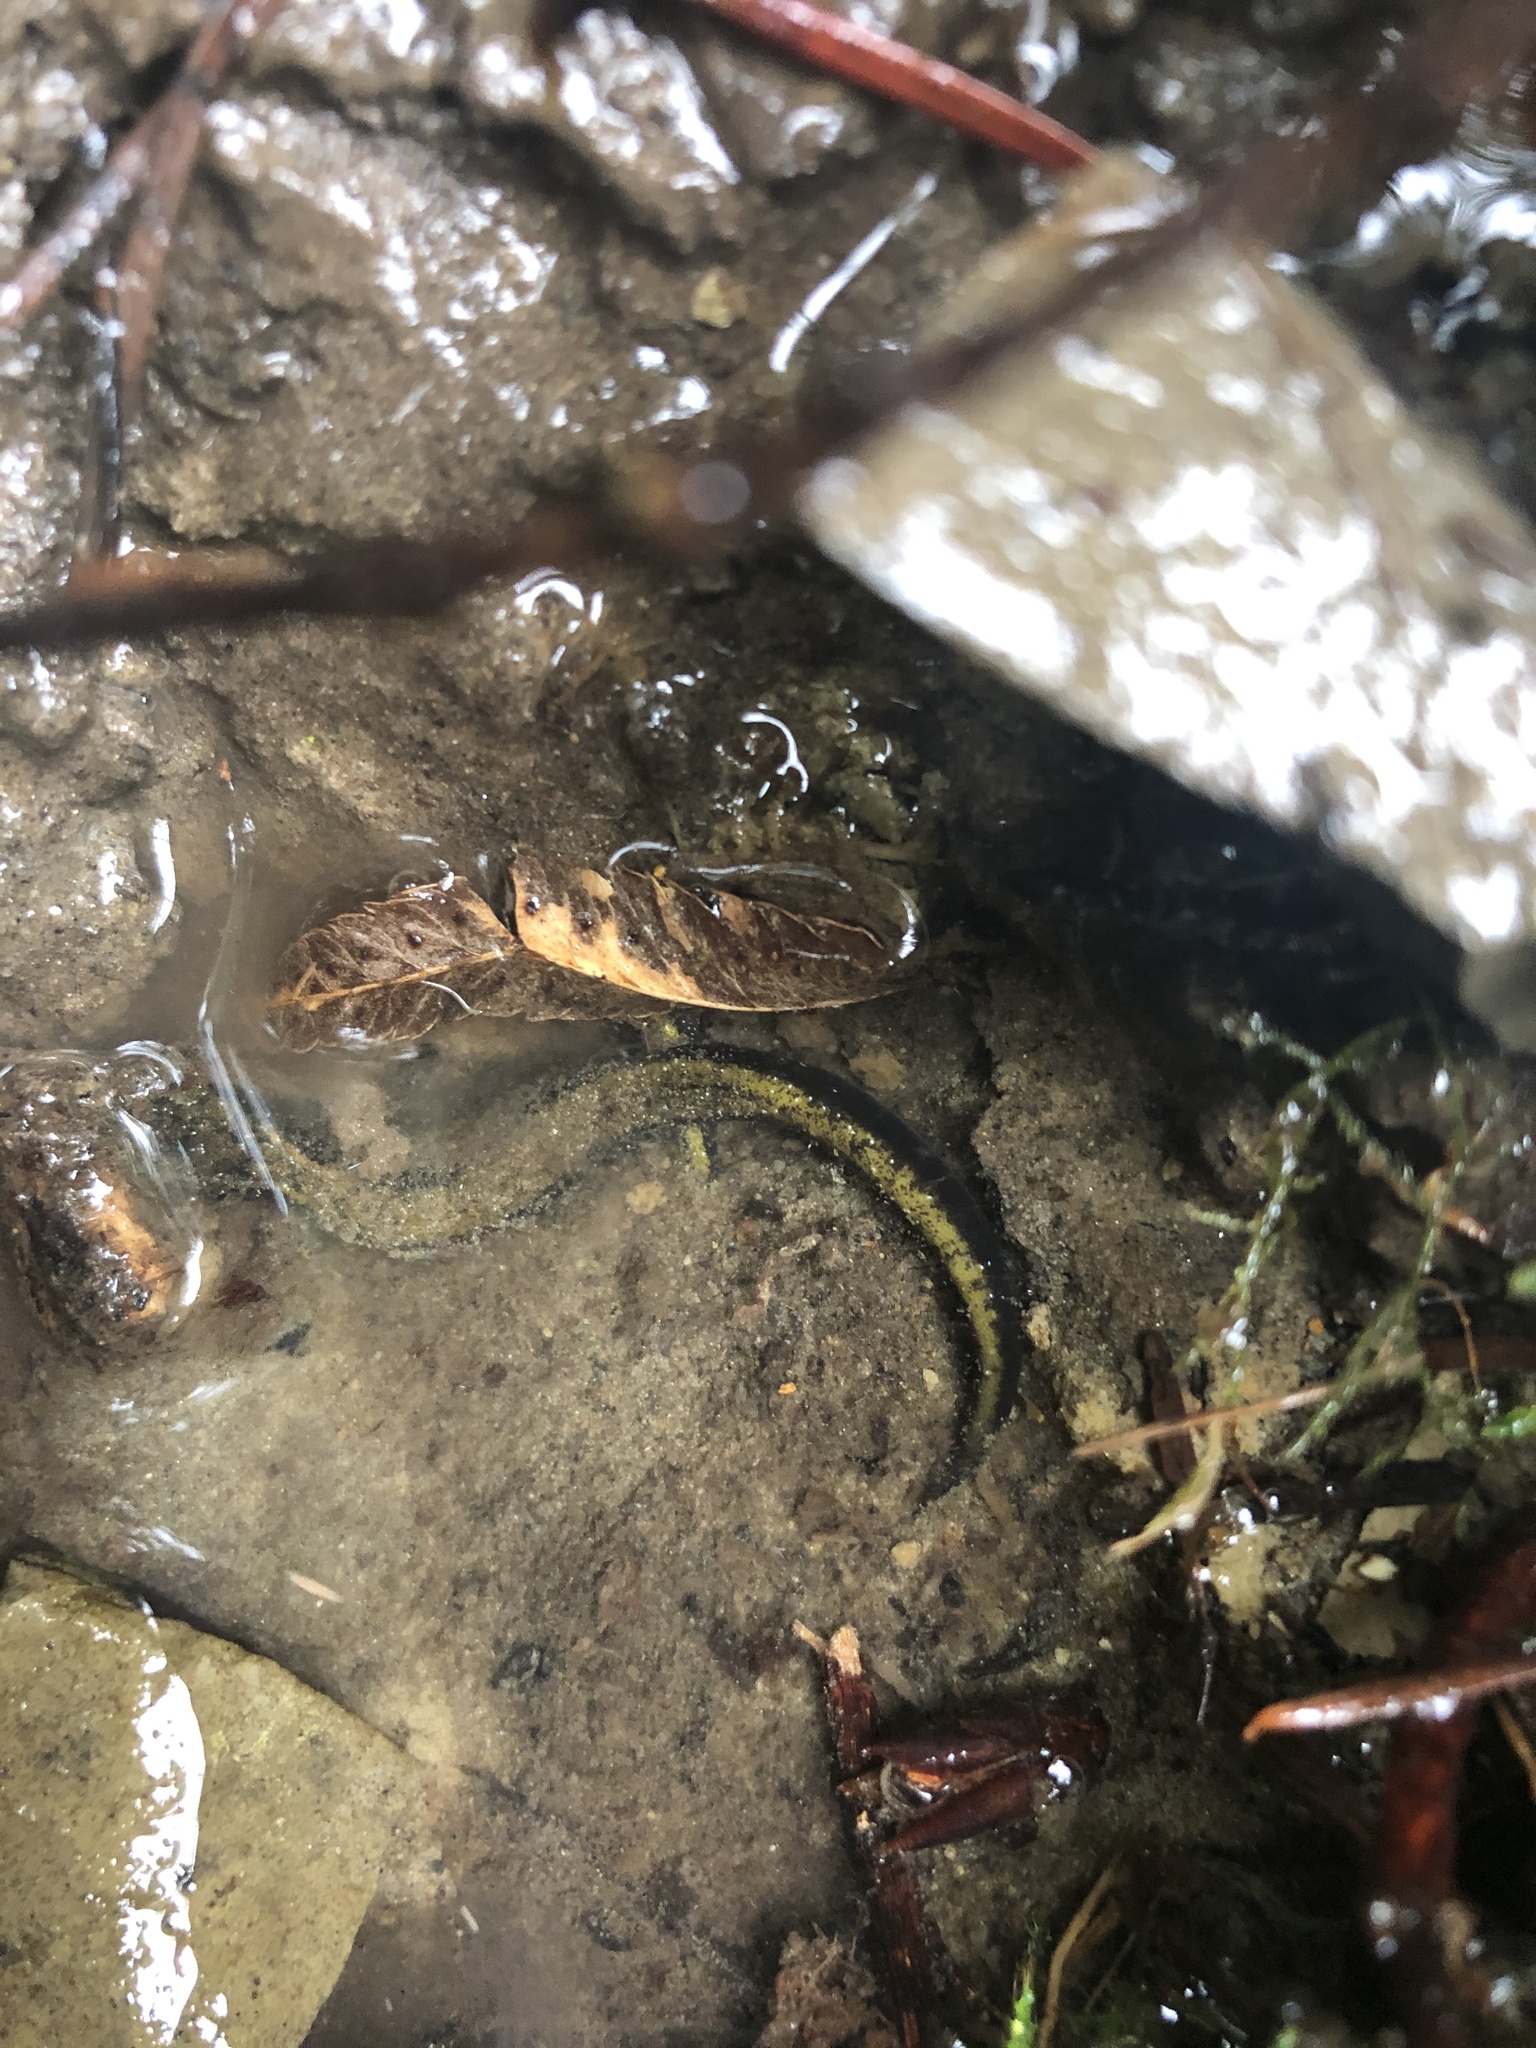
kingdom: Animalia
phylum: Chordata
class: Amphibia
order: Caudata
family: Plethodontidae
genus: Plethodon
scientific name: Plethodon dunni
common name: Dunn's salamander
